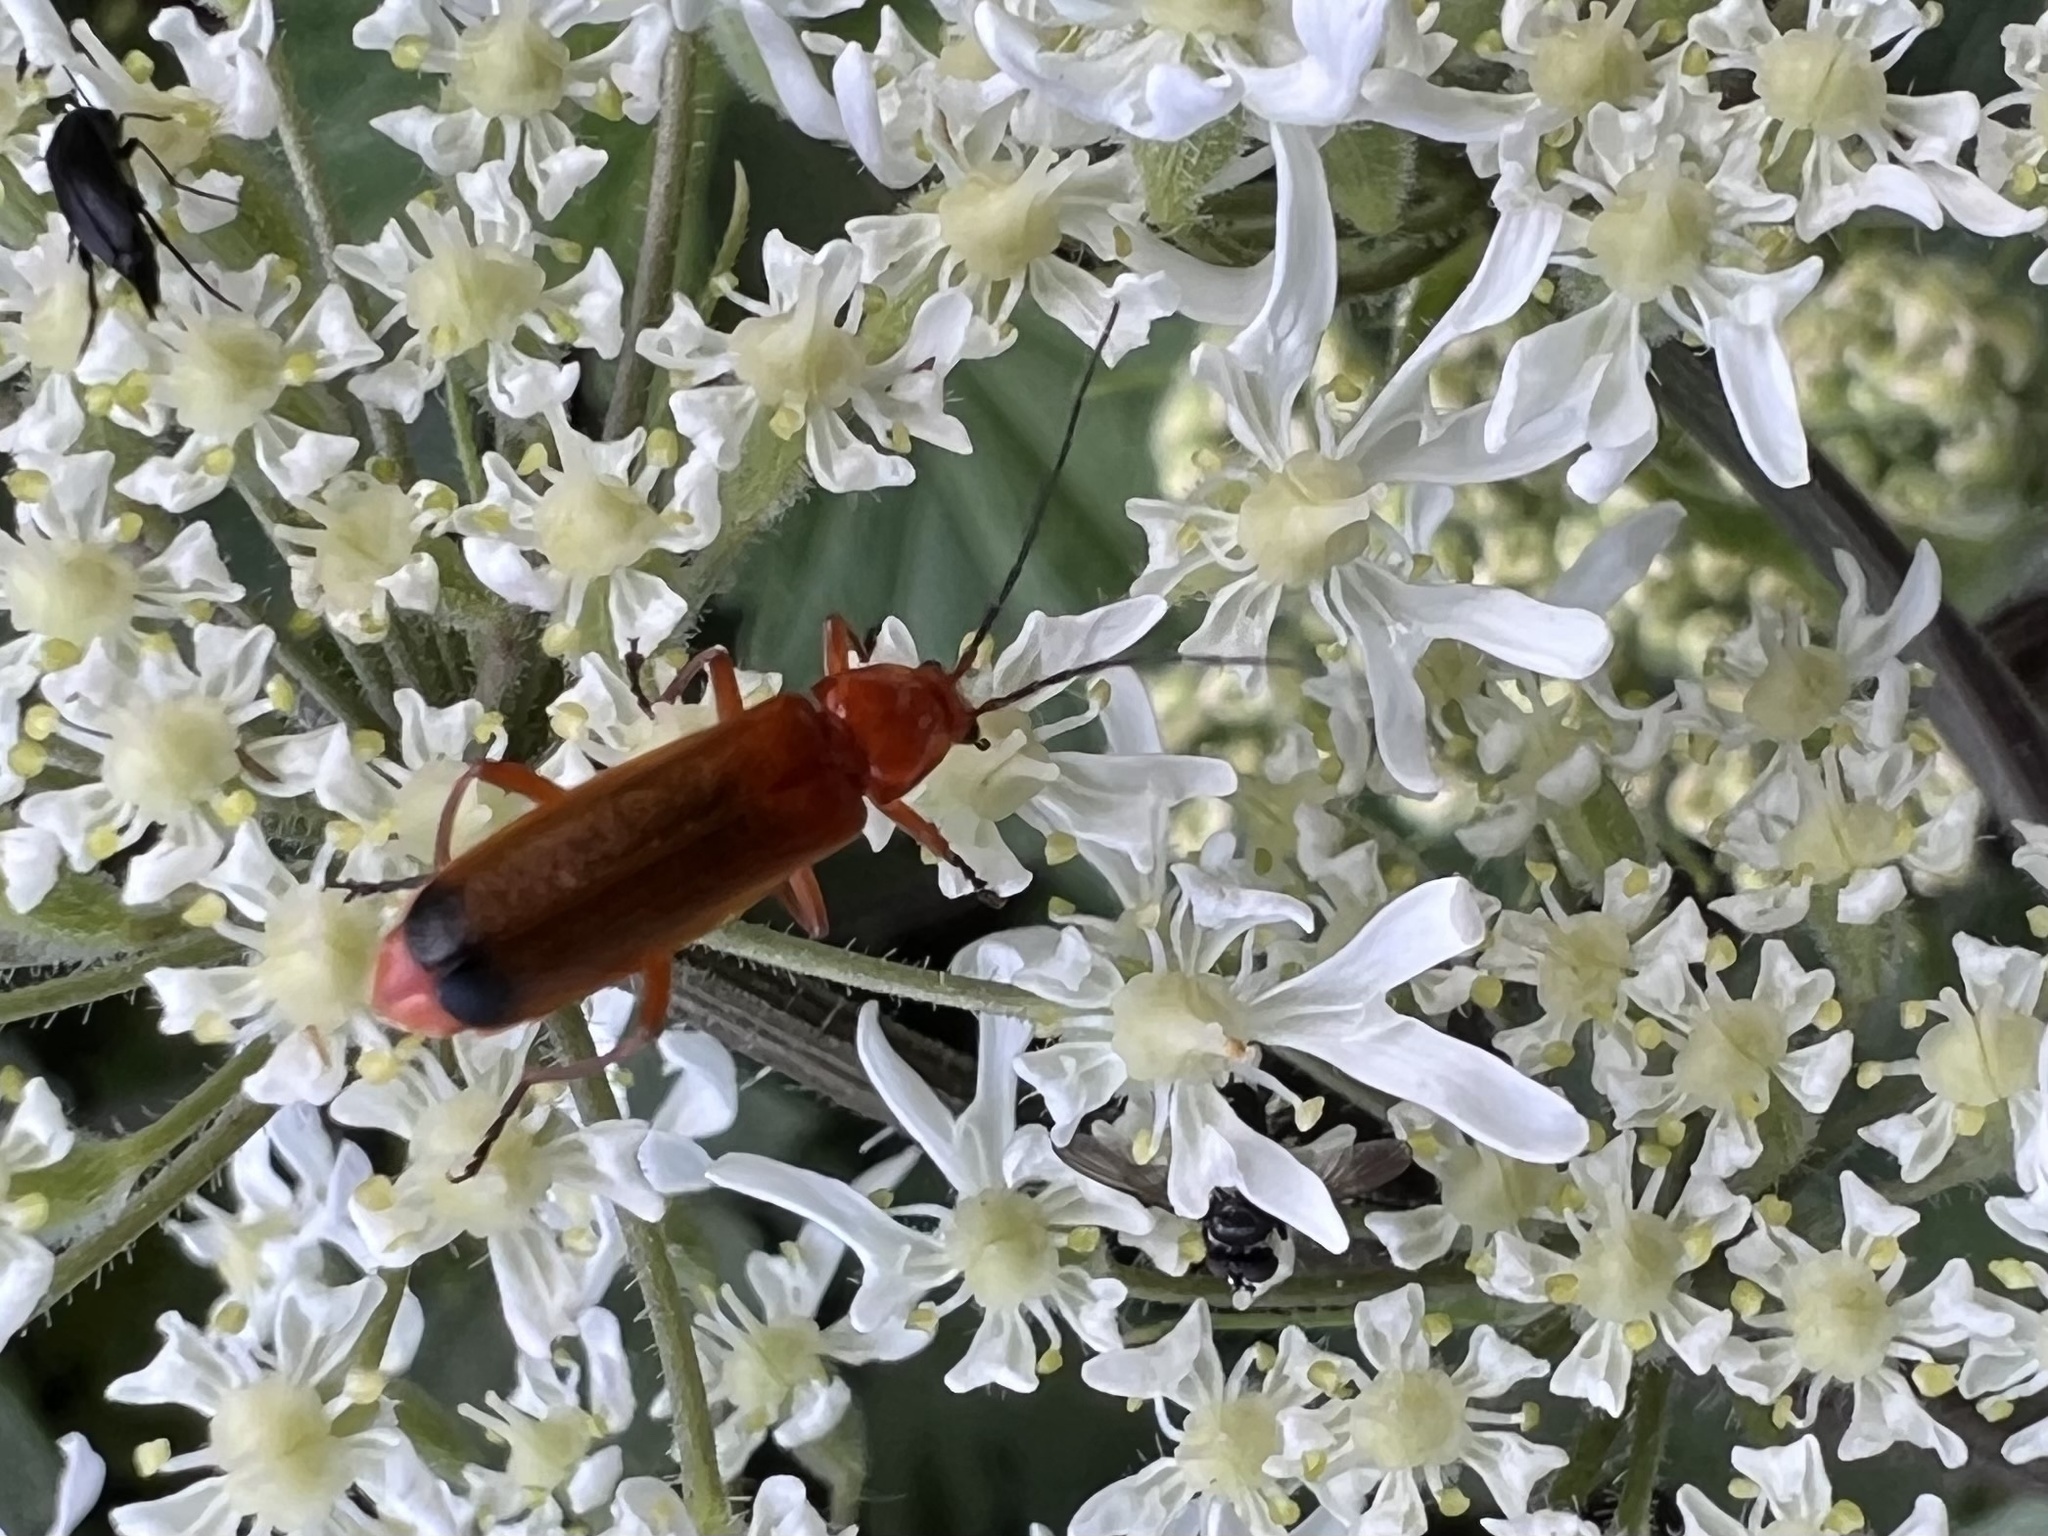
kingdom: Animalia
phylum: Arthropoda
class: Insecta
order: Coleoptera
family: Cantharidae
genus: Rhagonycha
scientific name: Rhagonycha fulva
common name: Common red soldier beetle
